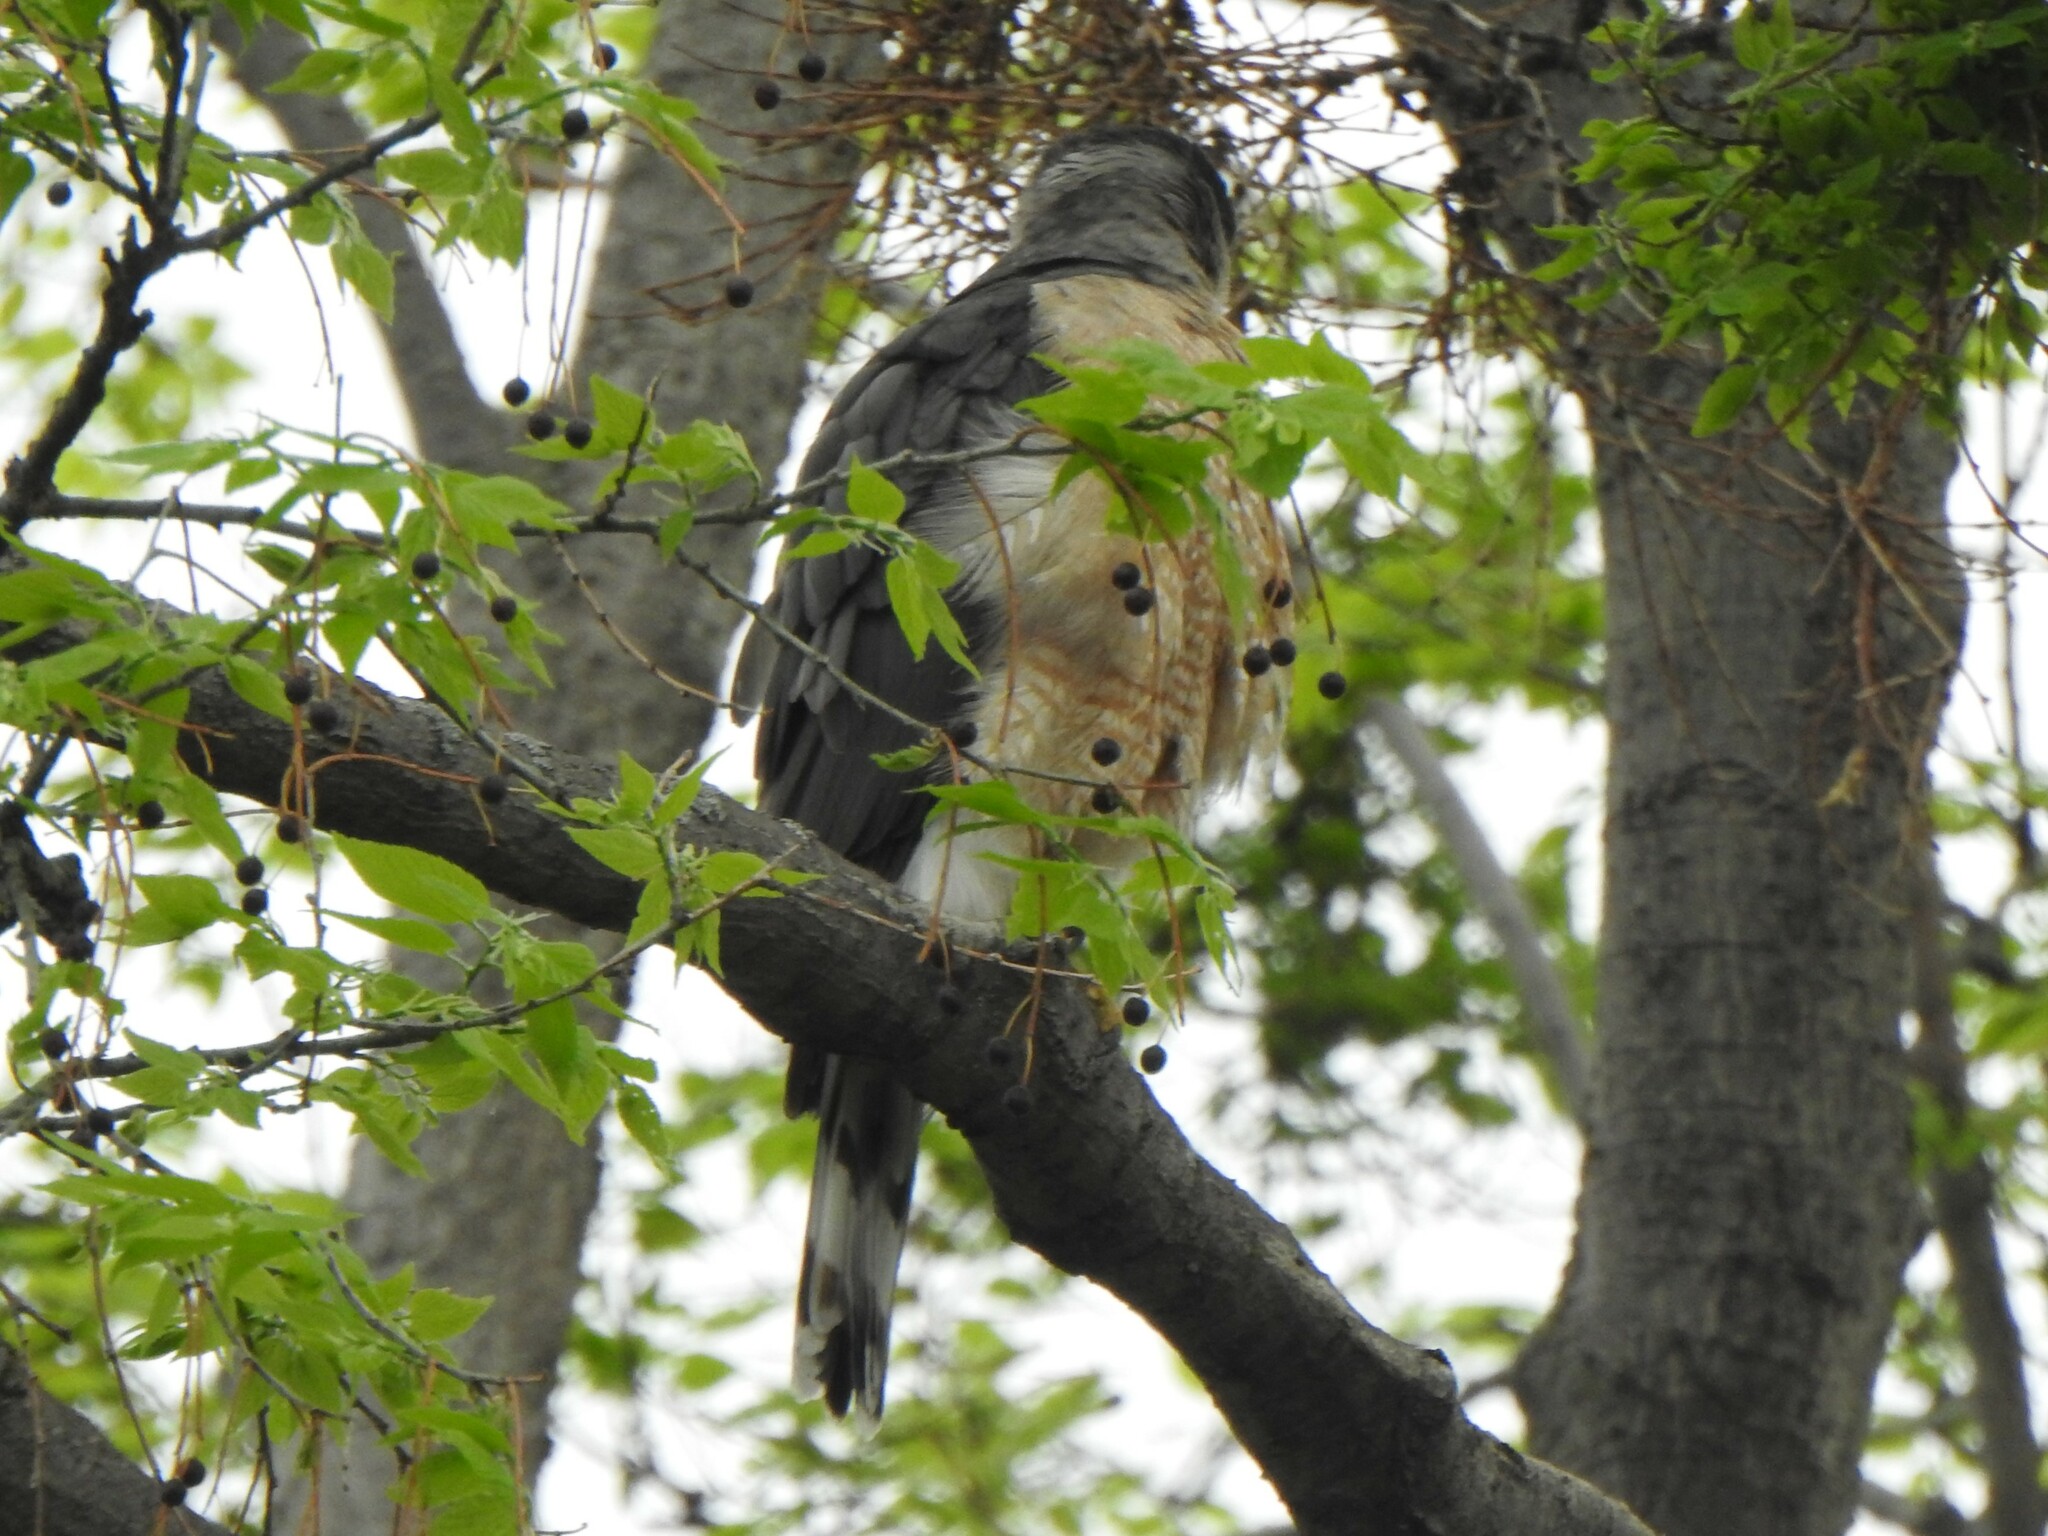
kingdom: Animalia
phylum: Chordata
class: Aves
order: Accipitriformes
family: Accipitridae
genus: Accipiter
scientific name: Accipiter cooperii
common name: Cooper's hawk
